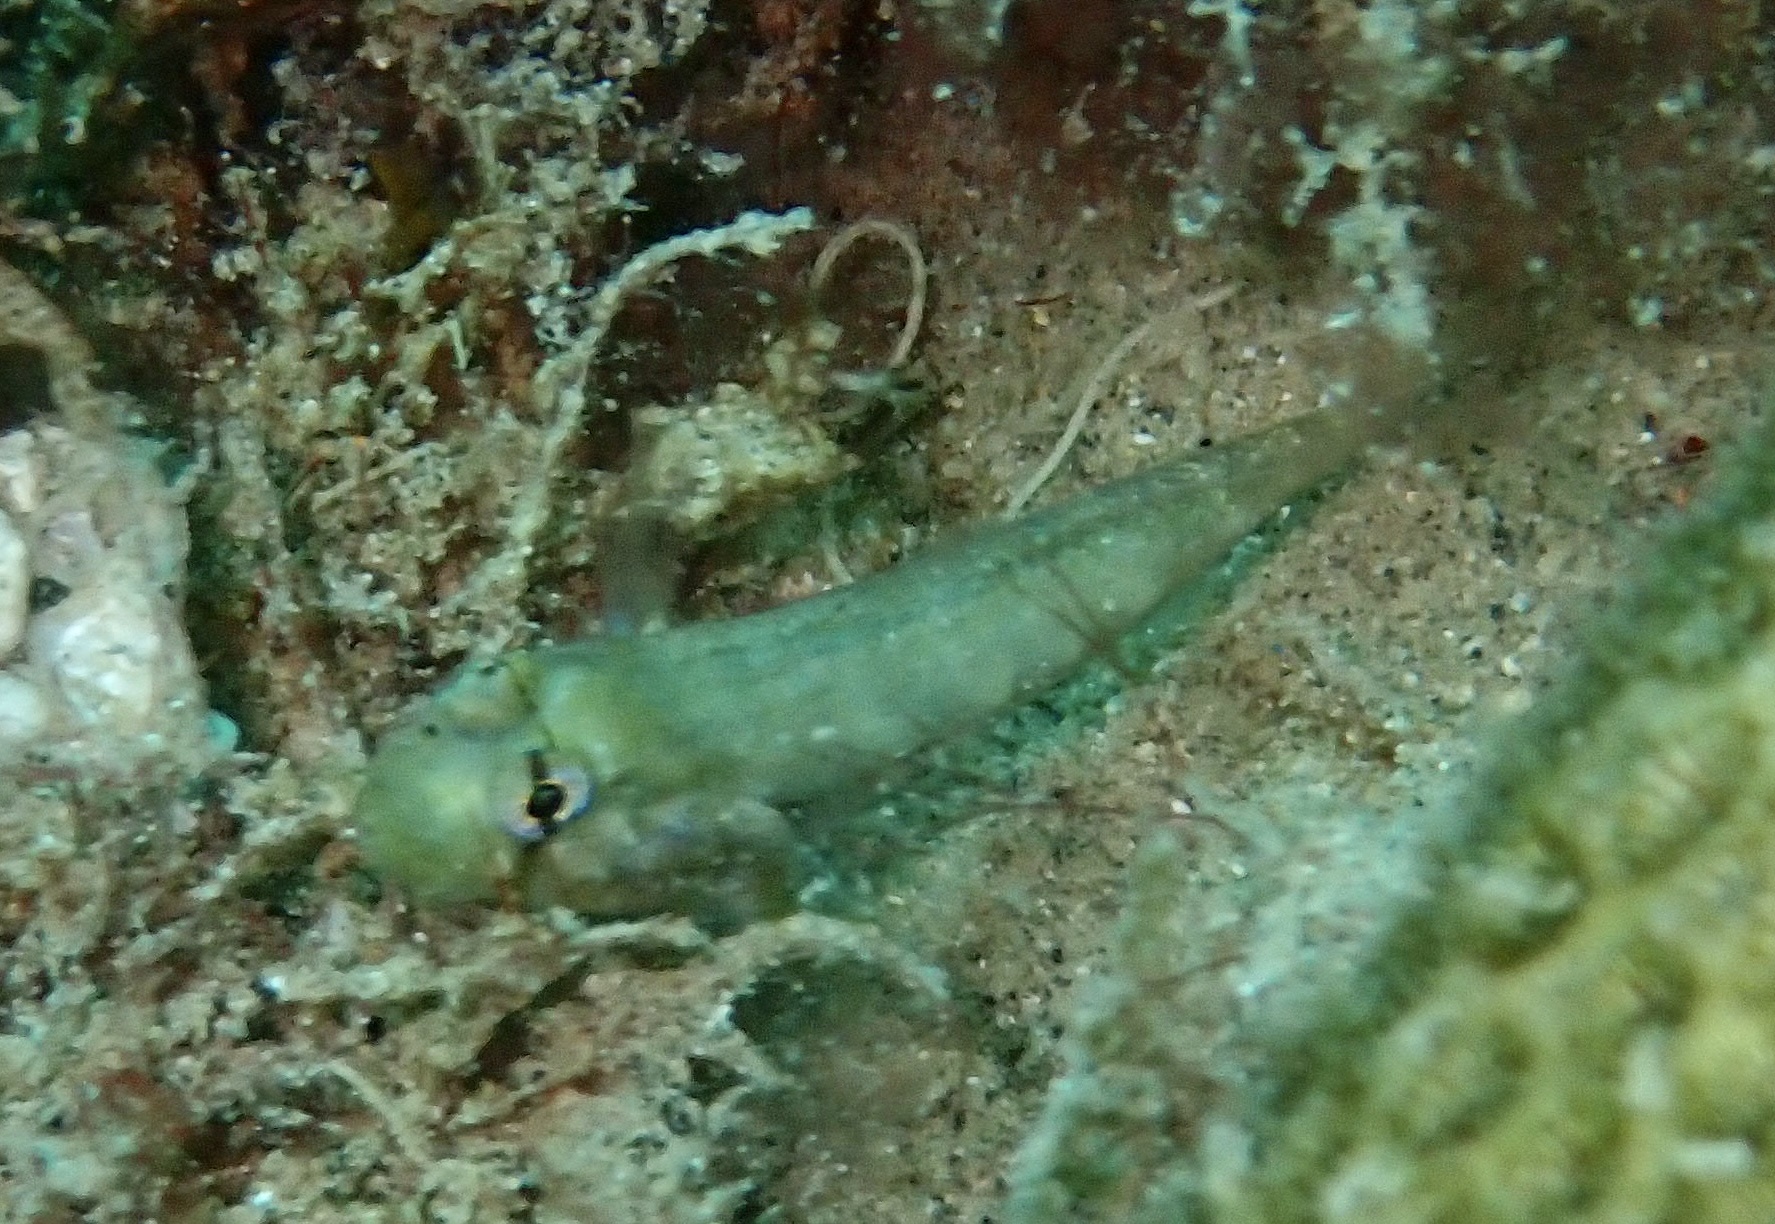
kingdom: Animalia
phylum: Chordata
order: Perciformes
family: Gobiidae
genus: Gnatholepis
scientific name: Gnatholepis thompsoni
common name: Goldspot goby
